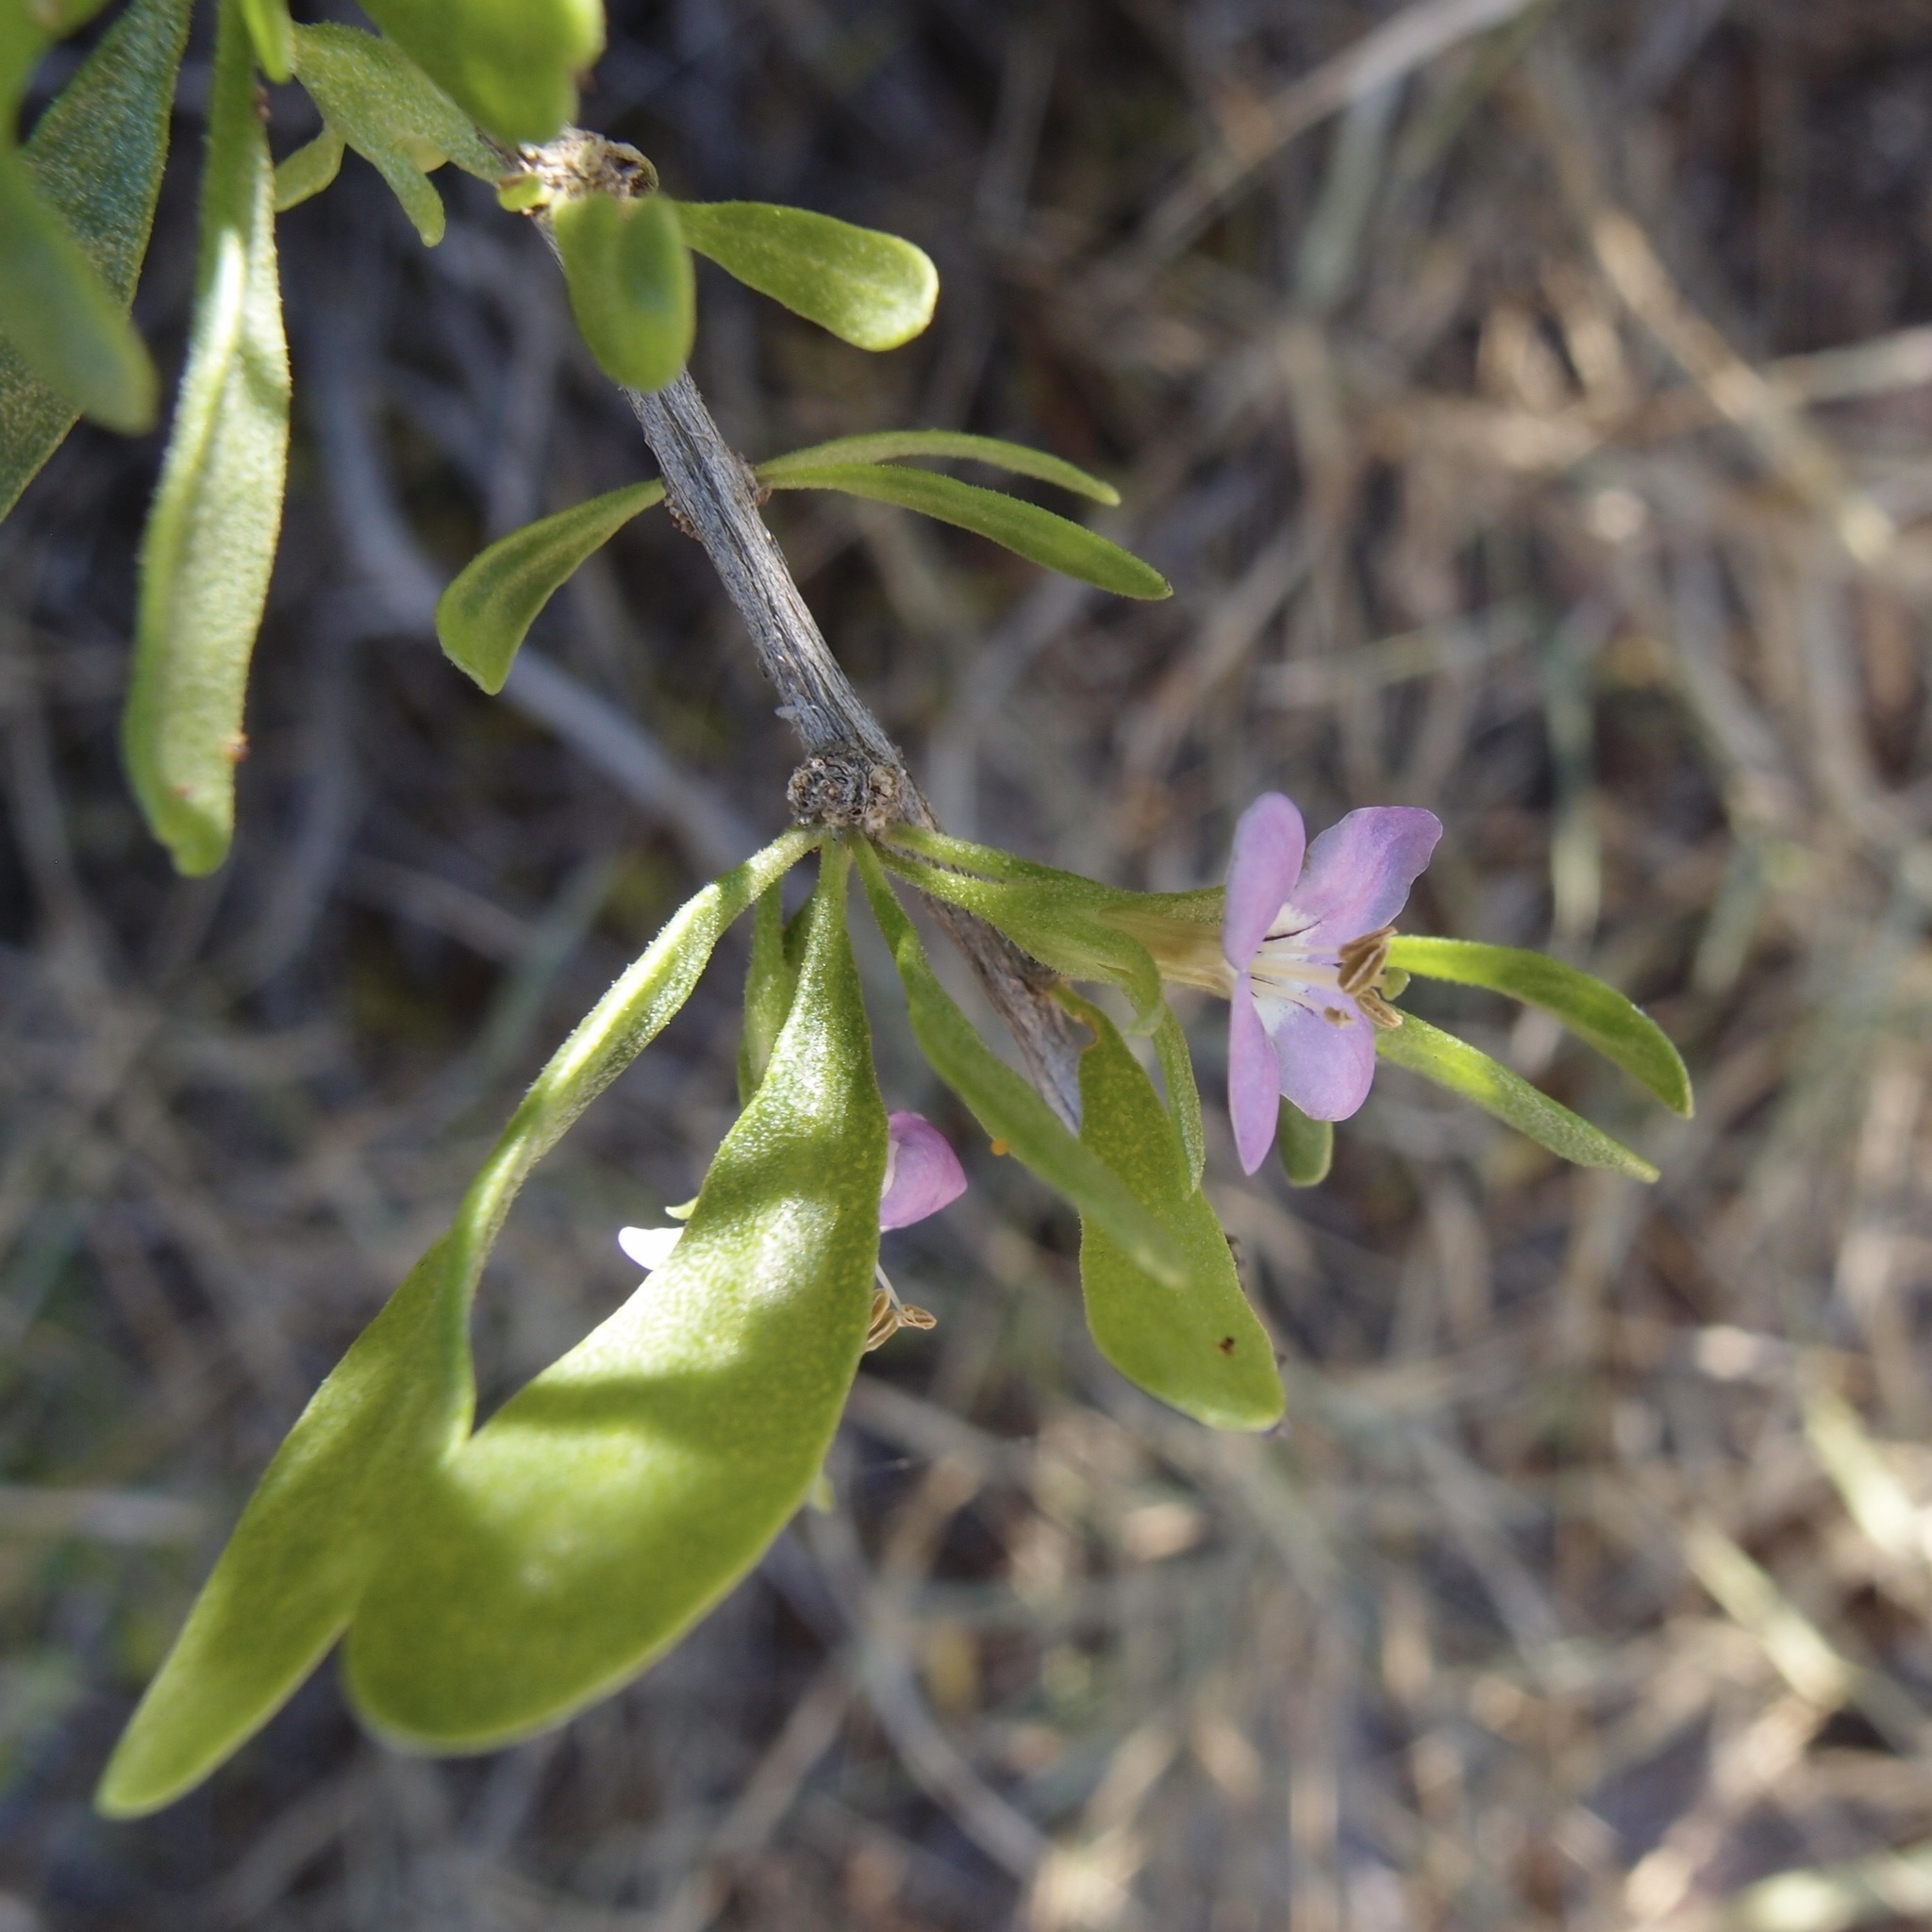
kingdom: Plantae
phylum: Tracheophyta
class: Magnoliopsida
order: Solanales
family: Solanaceae
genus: Lycium
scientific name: Lycium brevipes
